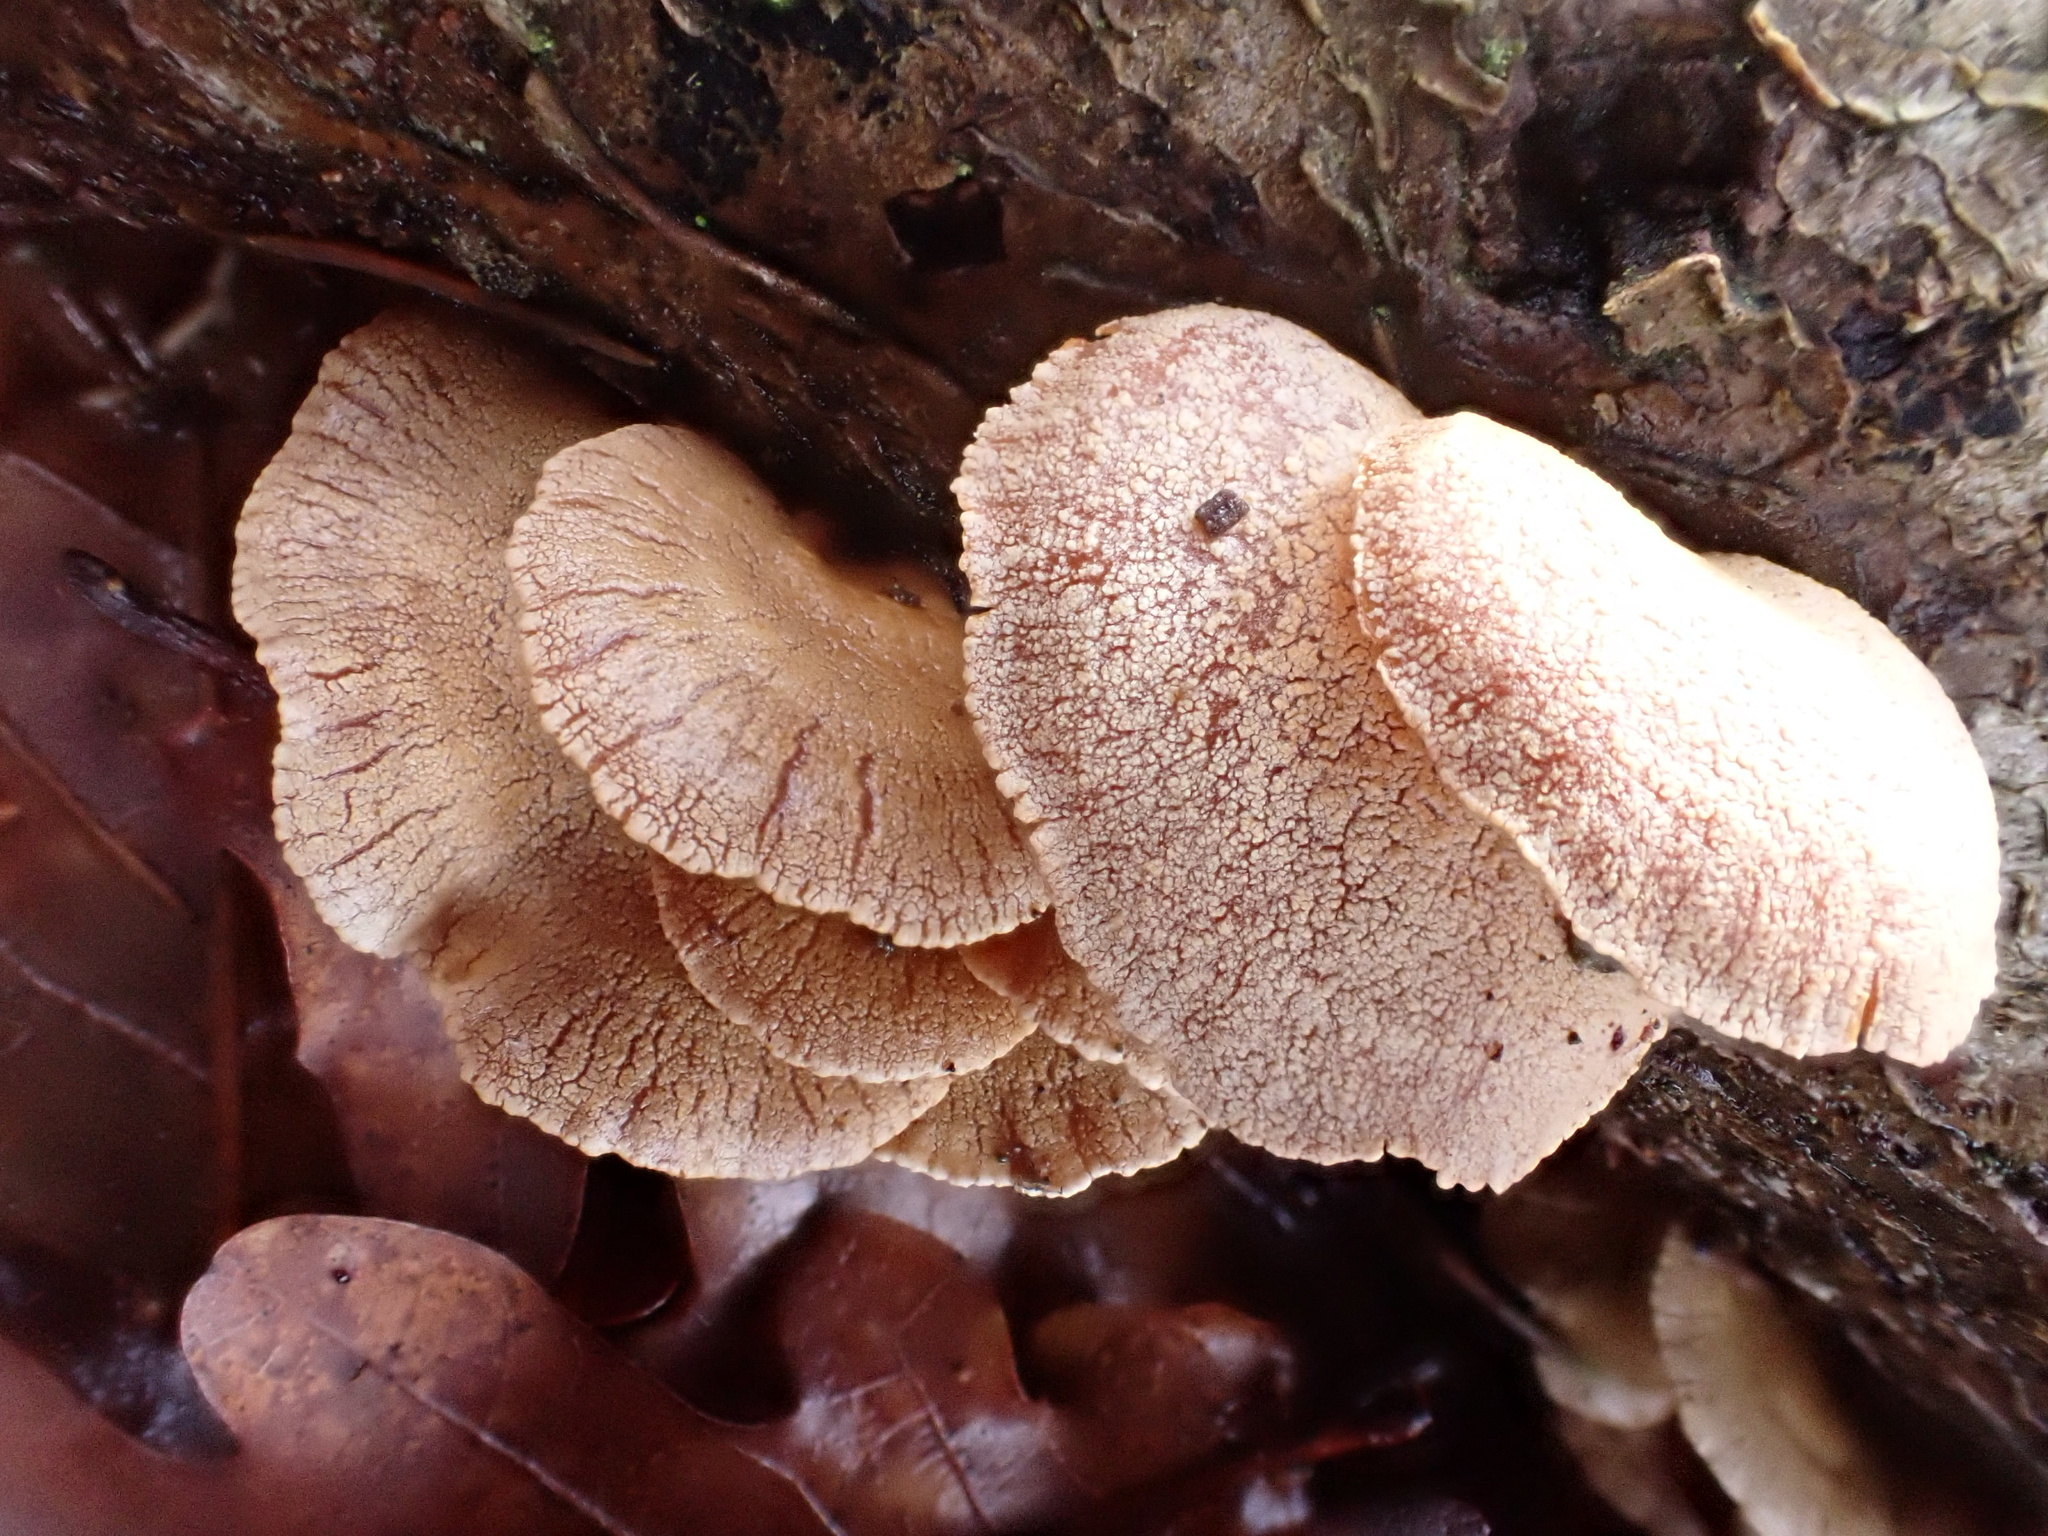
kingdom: Fungi
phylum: Basidiomycota
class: Agaricomycetes
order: Agaricales
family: Mycenaceae
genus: Panellus
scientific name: Panellus stipticus
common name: Bitter oysterling
